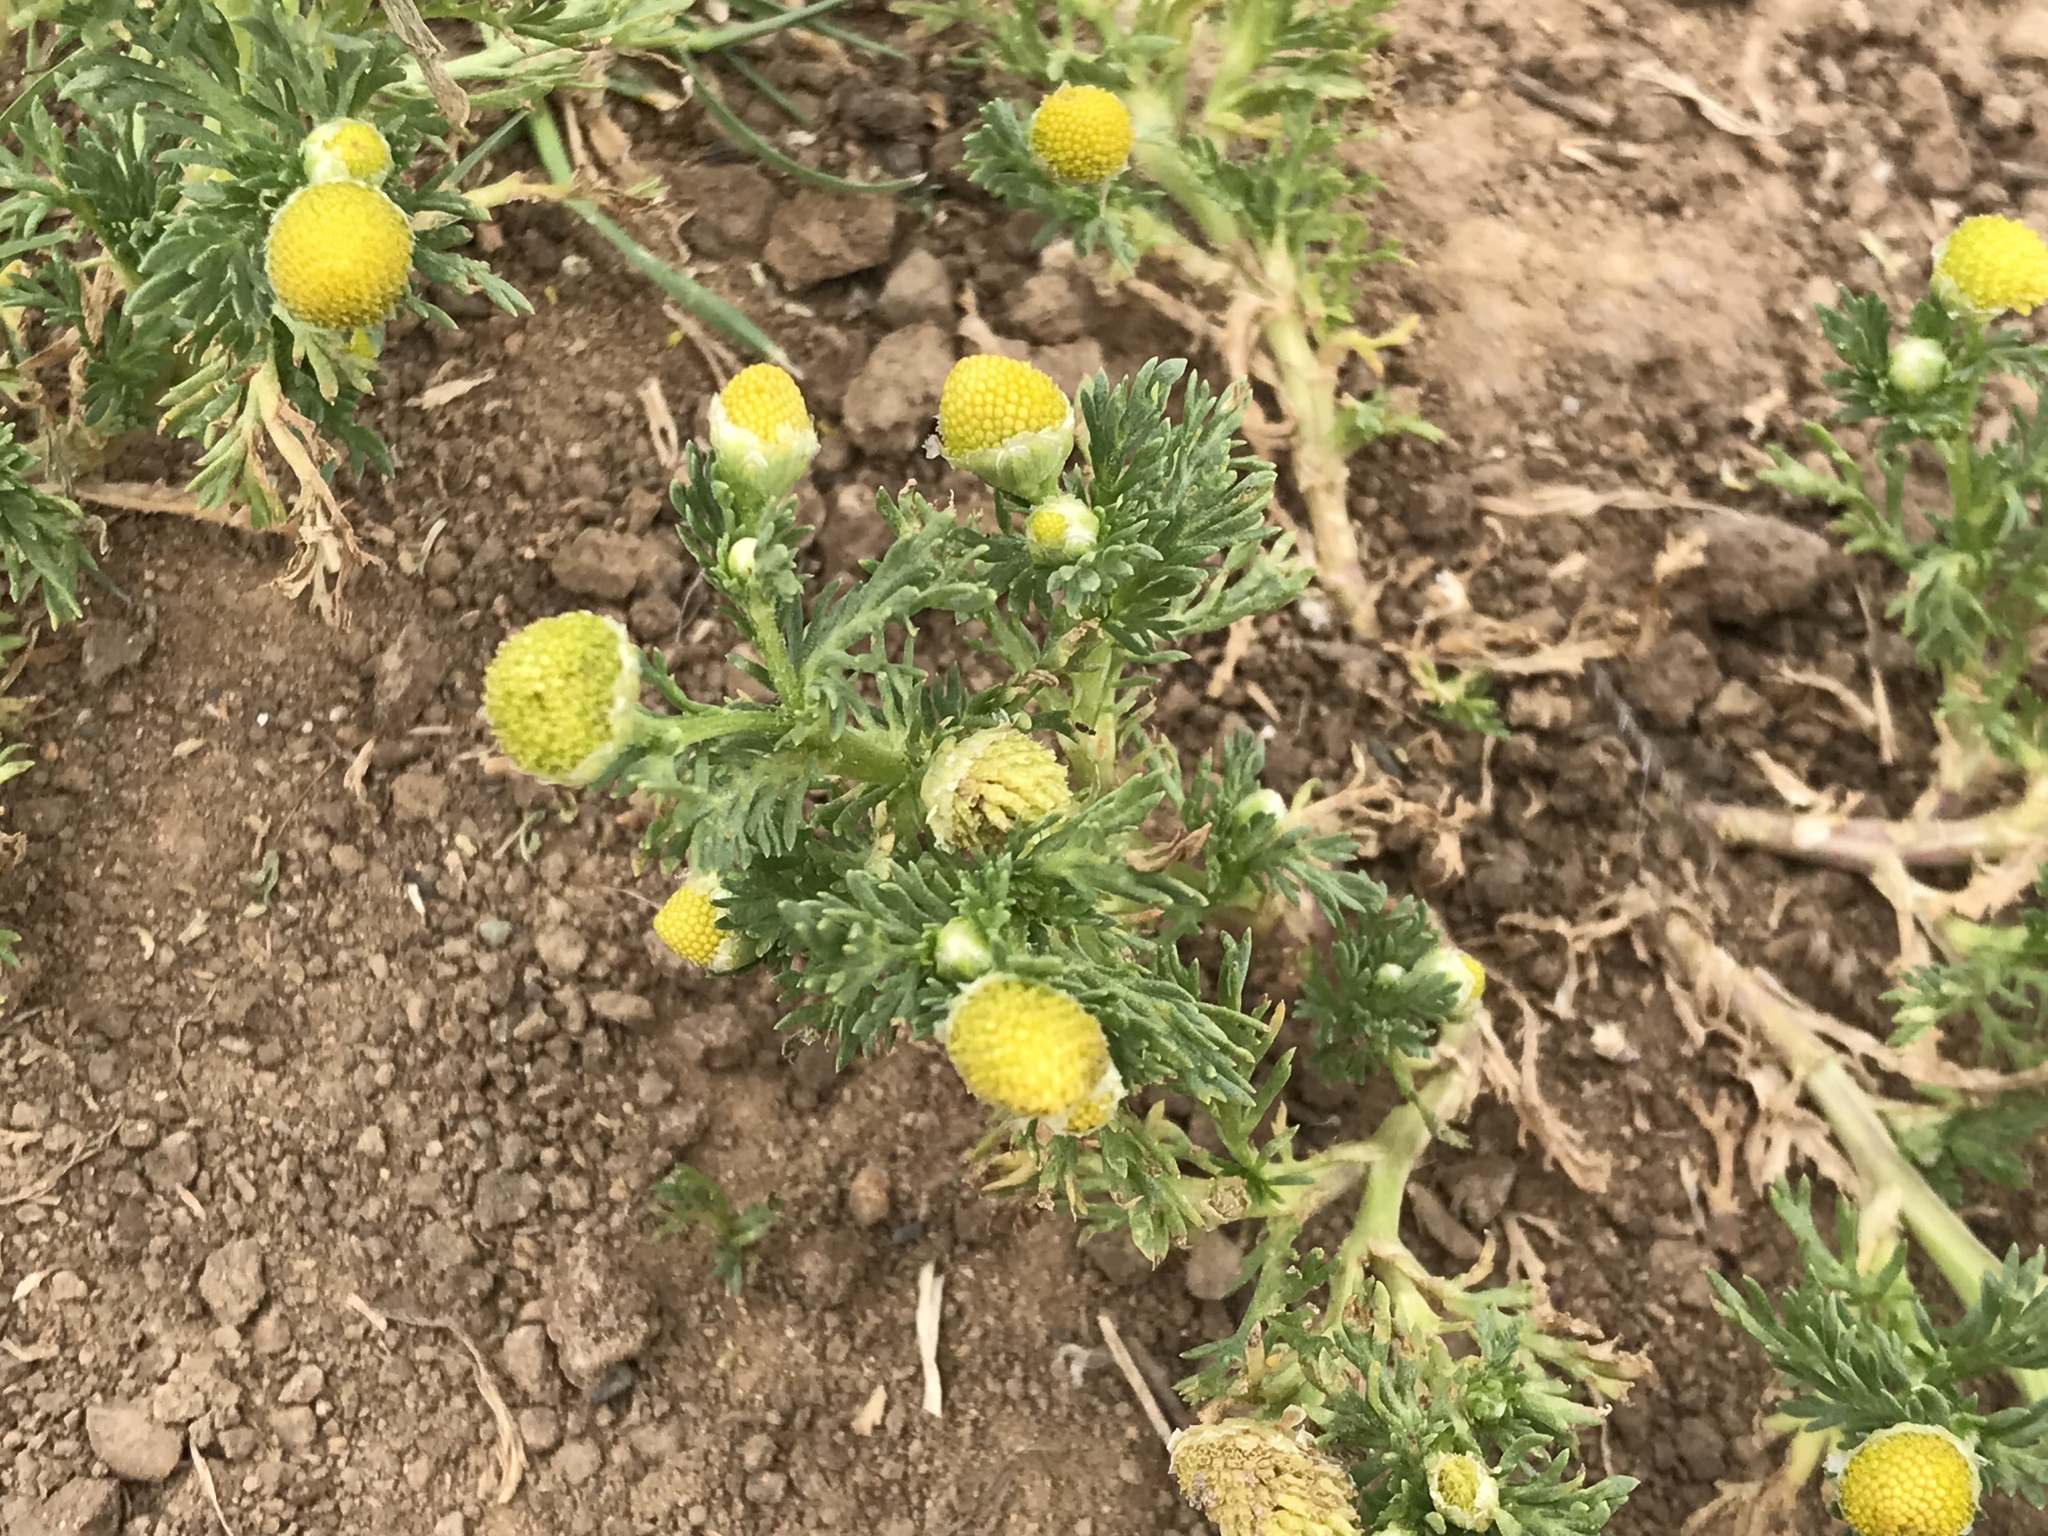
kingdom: Plantae
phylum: Tracheophyta
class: Magnoliopsida
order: Asterales
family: Asteraceae
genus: Matricaria
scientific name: Matricaria discoidea
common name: Disc mayweed
